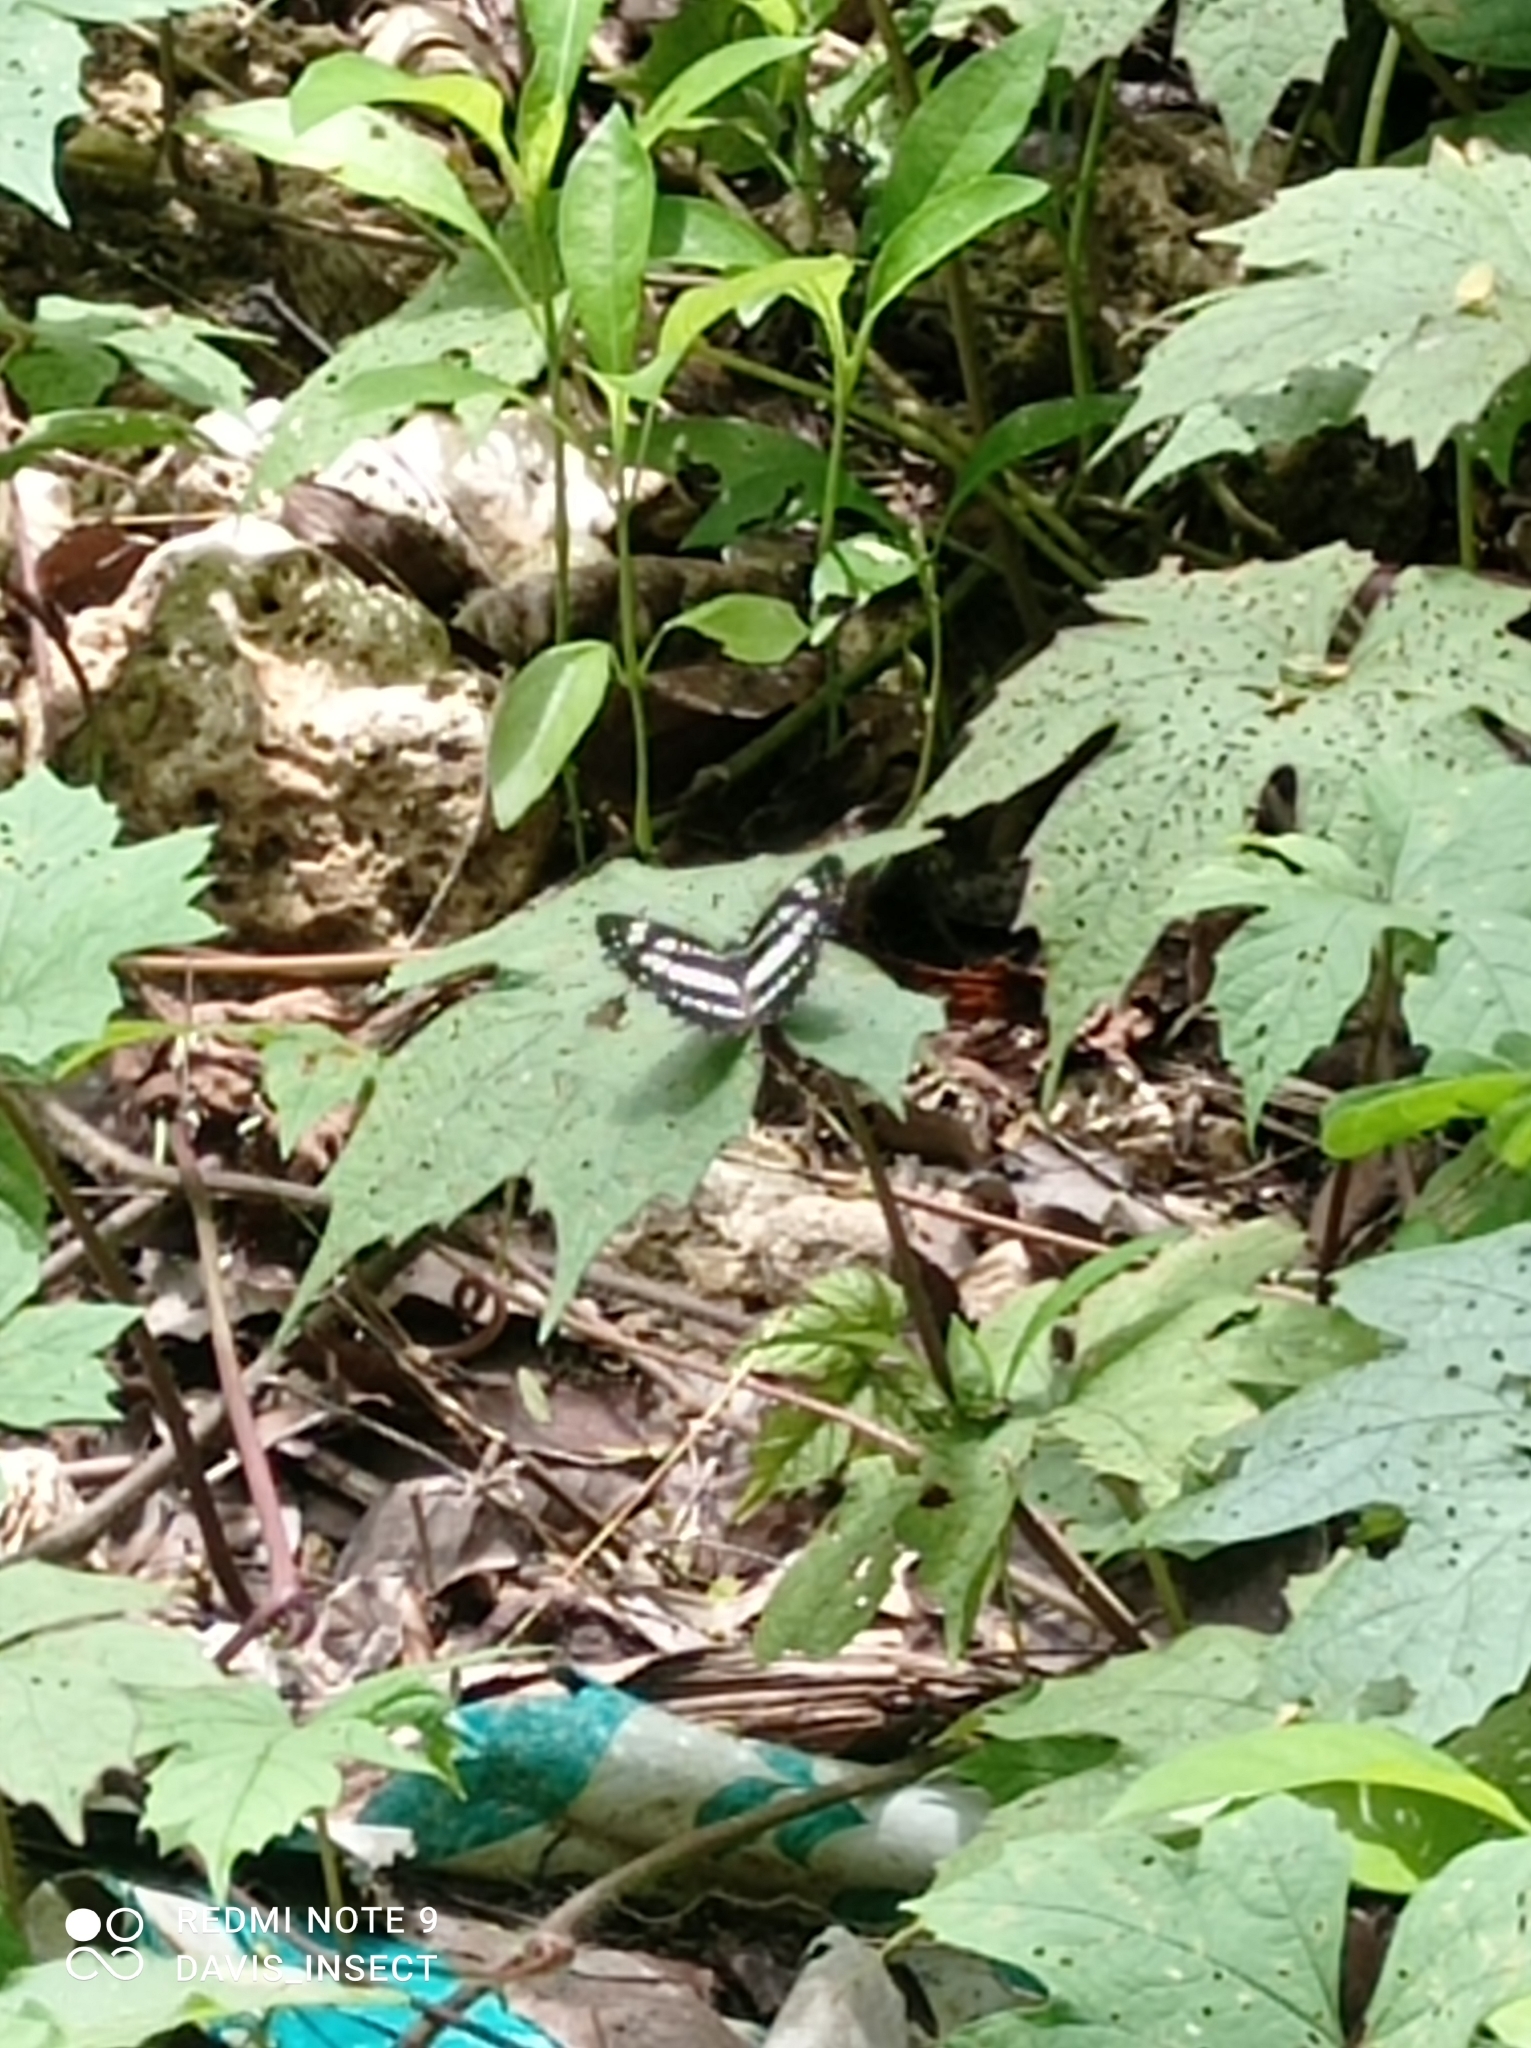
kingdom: Animalia
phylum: Arthropoda
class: Insecta
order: Lepidoptera
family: Nymphalidae
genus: Neptis
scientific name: Neptis hylas
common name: Common sailer
